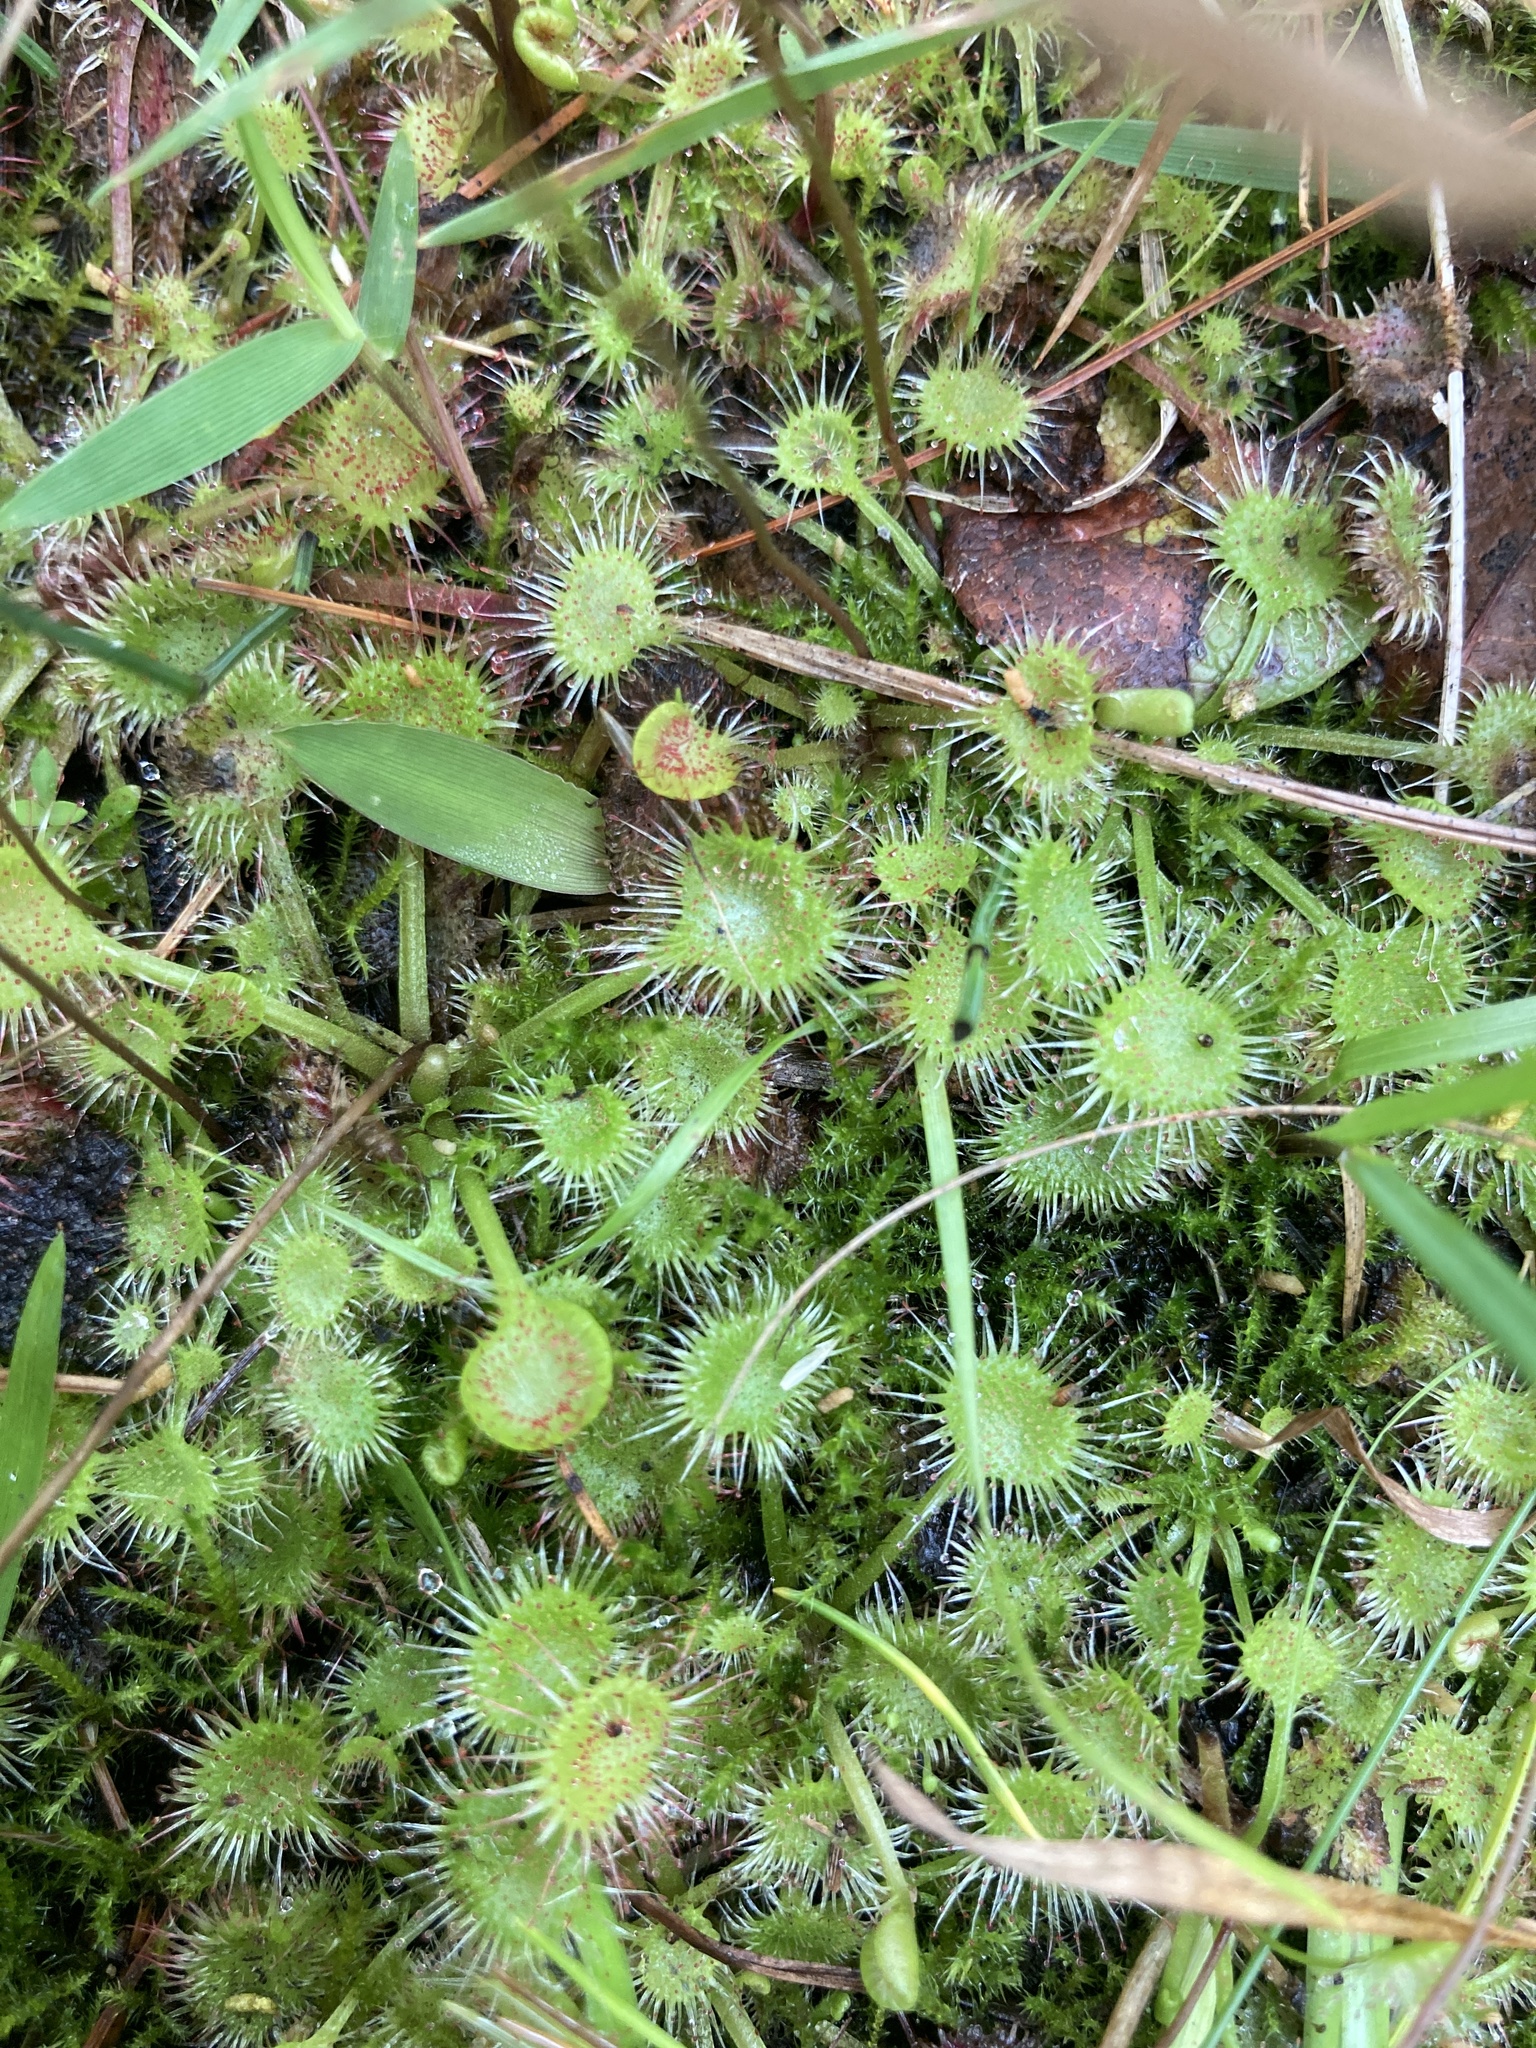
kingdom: Plantae
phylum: Tracheophyta
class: Magnoliopsida
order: Caryophyllales
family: Droseraceae
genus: Drosera
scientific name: Drosera rotundifolia
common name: Round-leaved sundew
